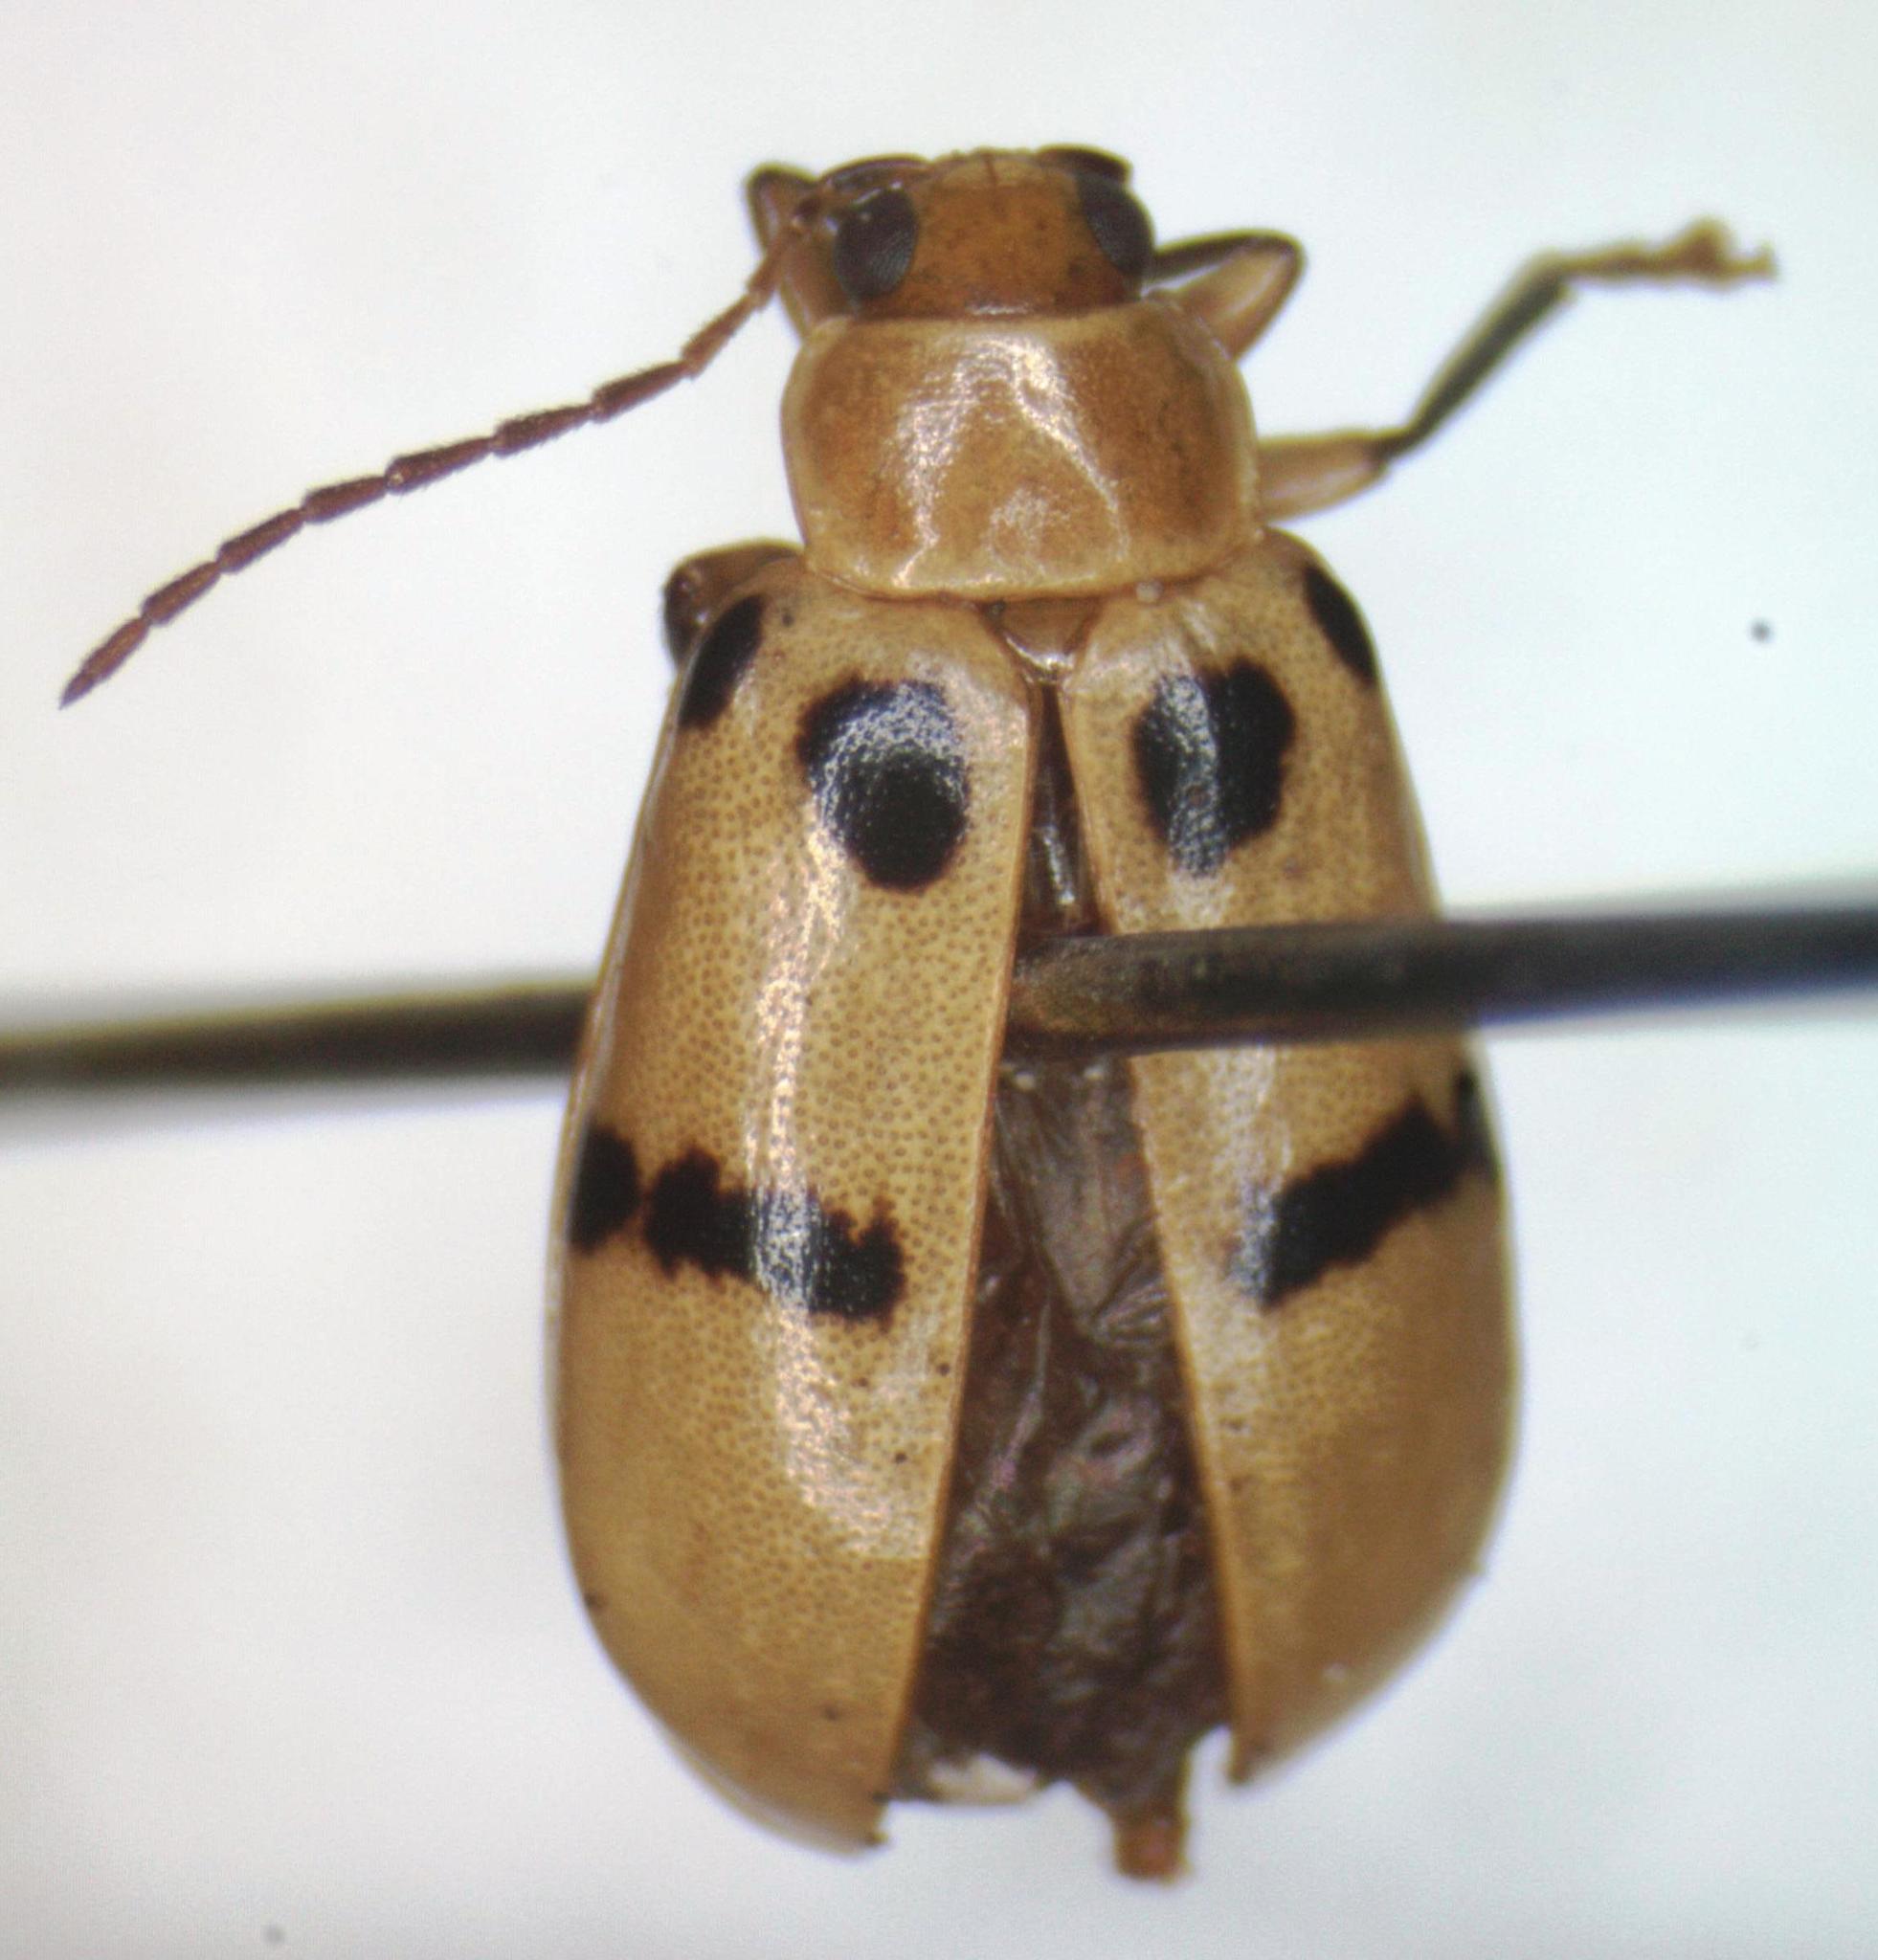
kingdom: Animalia
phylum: Arthropoda
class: Insecta
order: Coleoptera
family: Chrysomelidae
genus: Systena
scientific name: Systena
